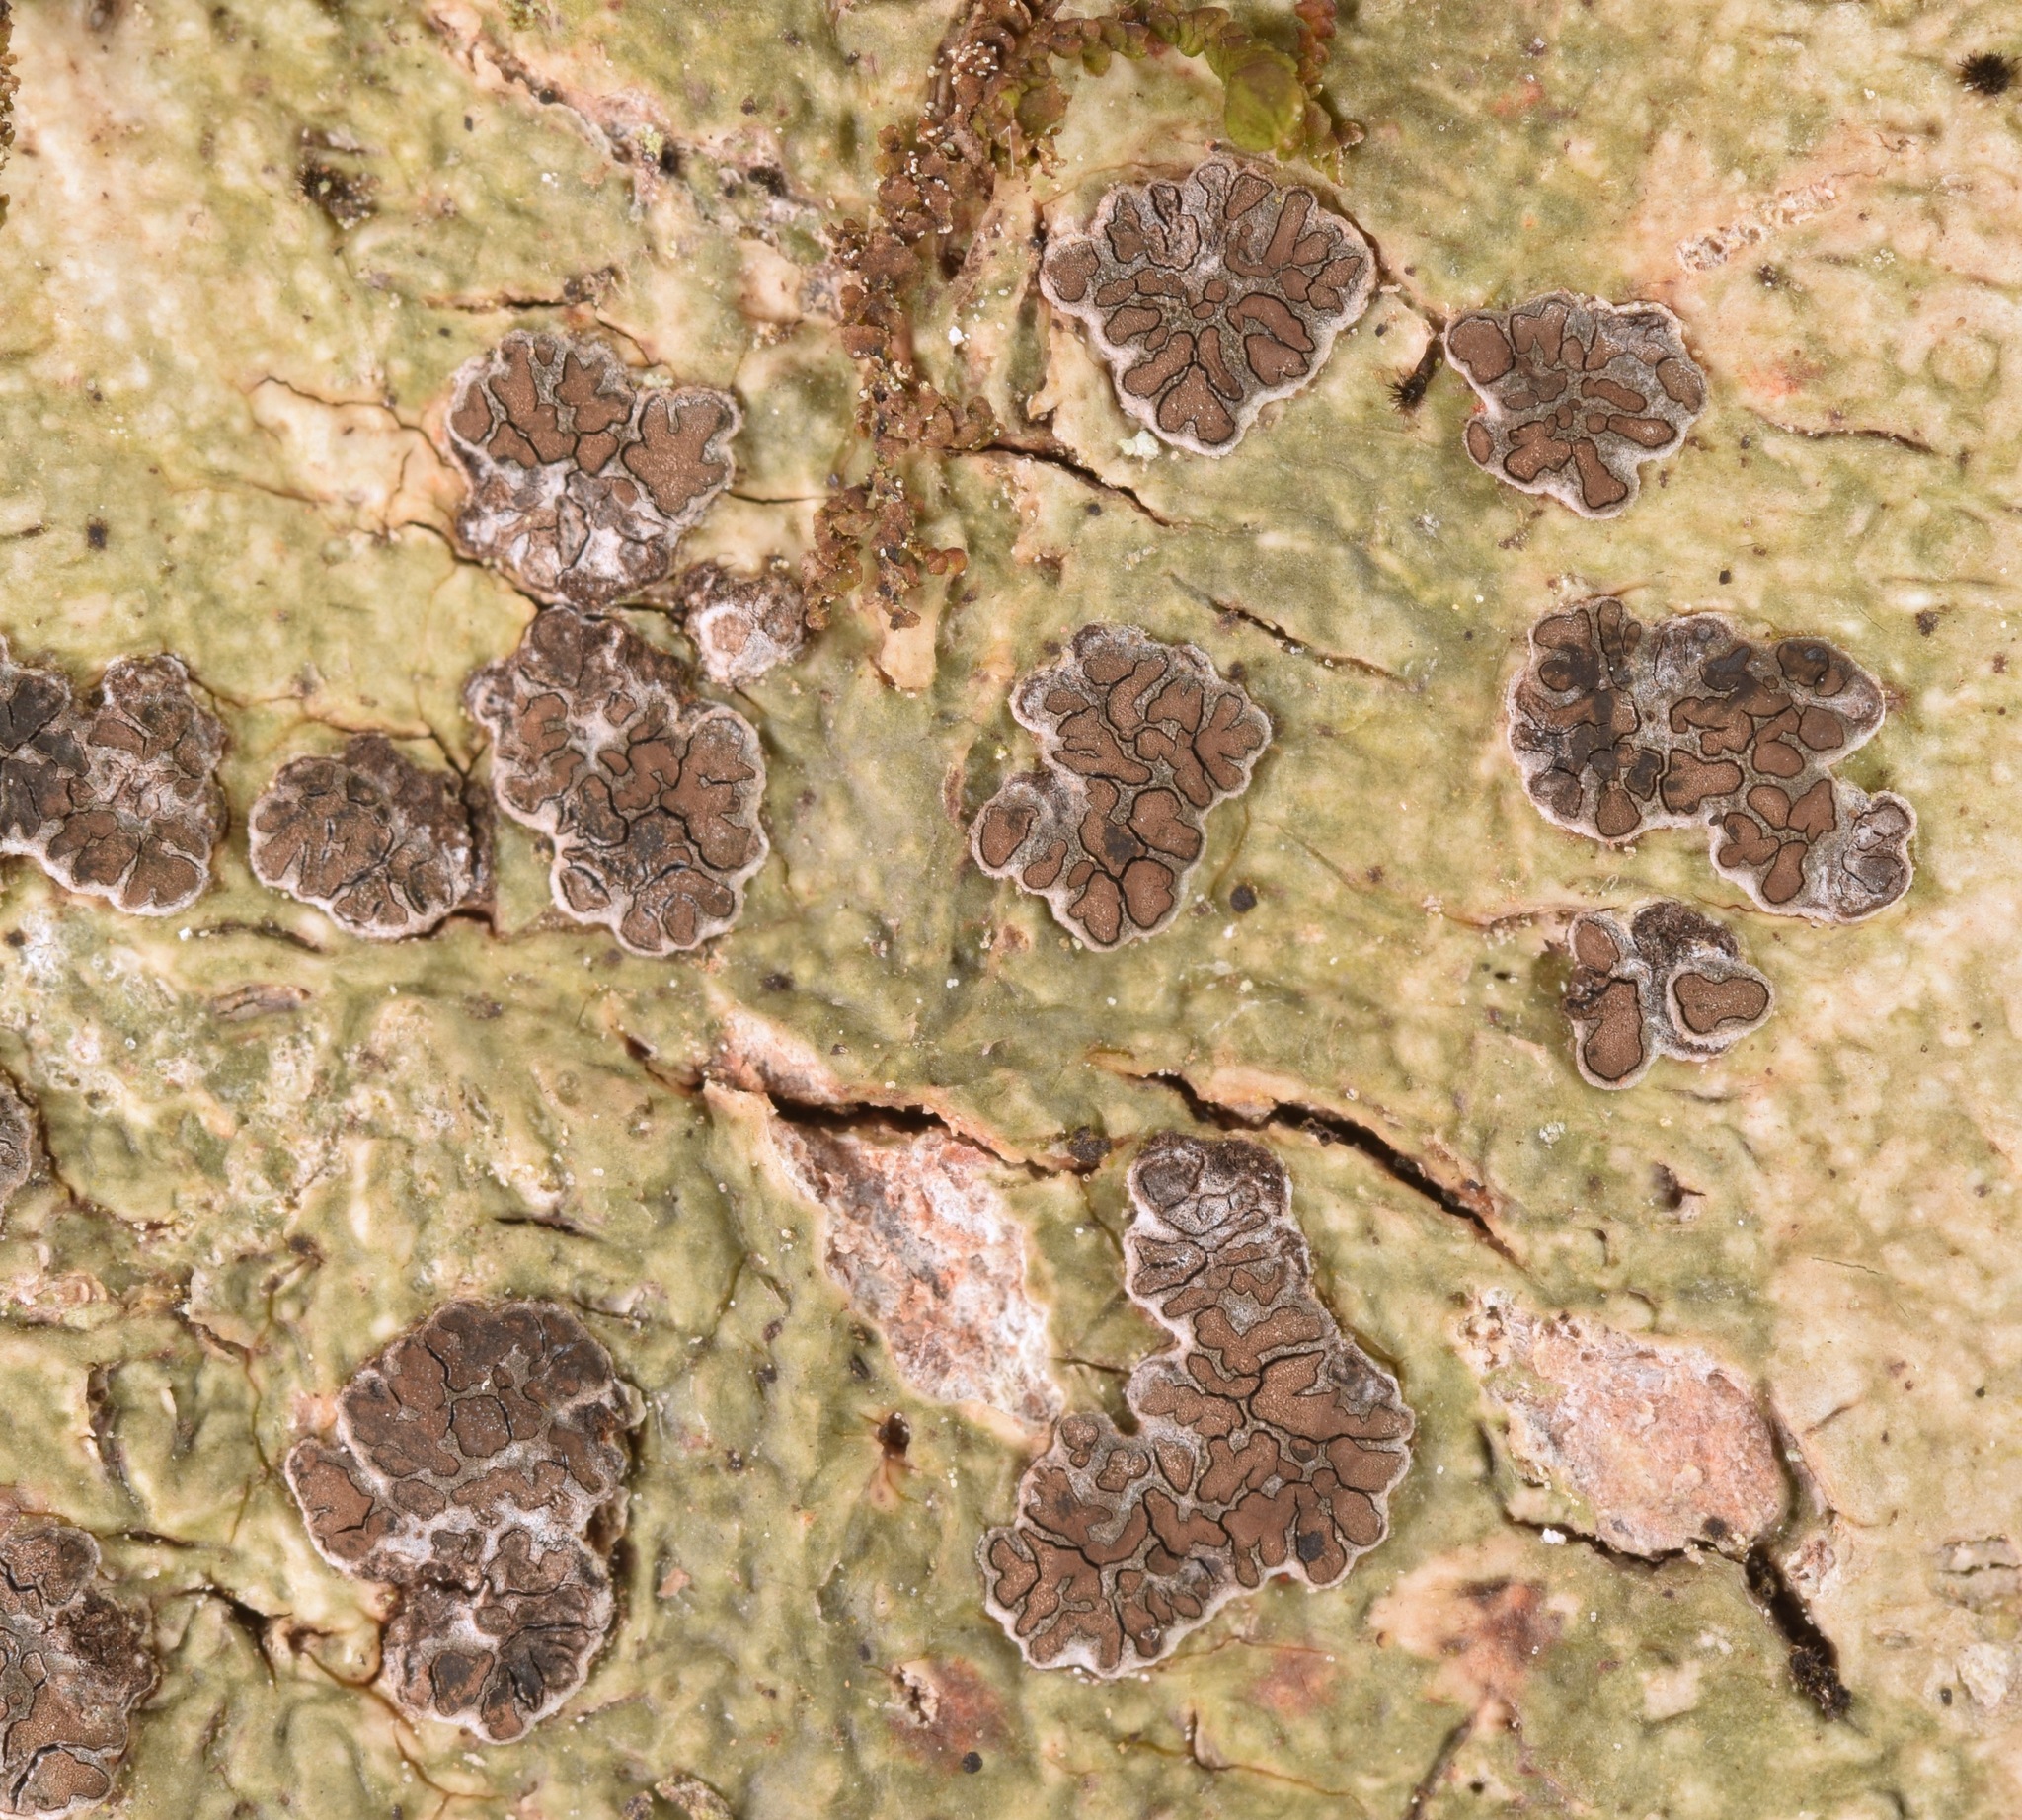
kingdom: Fungi
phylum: Ascomycota
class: Lecanoromycetes
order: Ostropales
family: Graphidaceae
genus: Glyphis
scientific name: Glyphis cicatricosa
